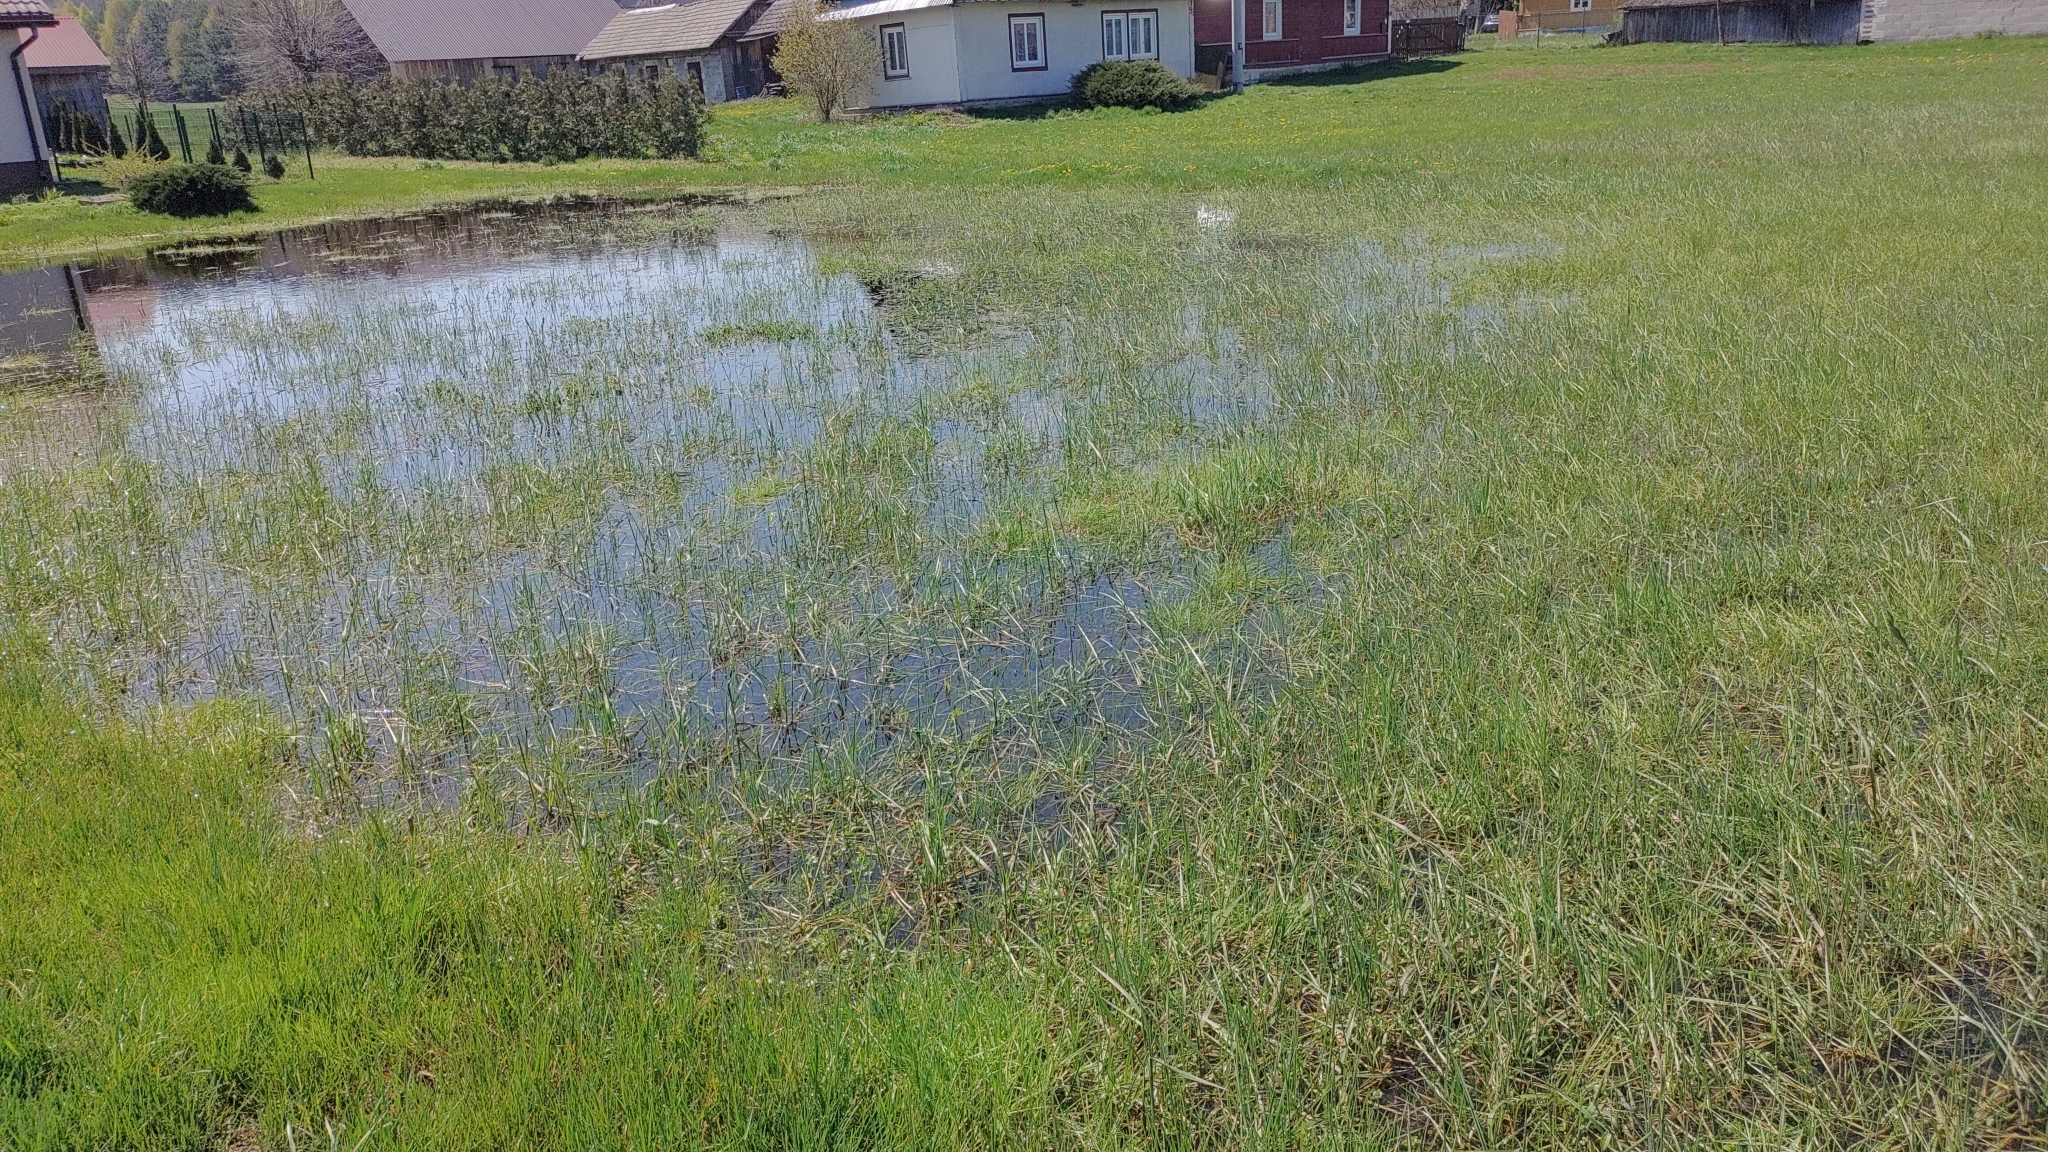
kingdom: Plantae
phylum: Tracheophyta
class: Magnoliopsida
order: Ericales
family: Primulaceae
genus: Lysimachia
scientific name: Lysimachia nummularia
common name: Moneywort
